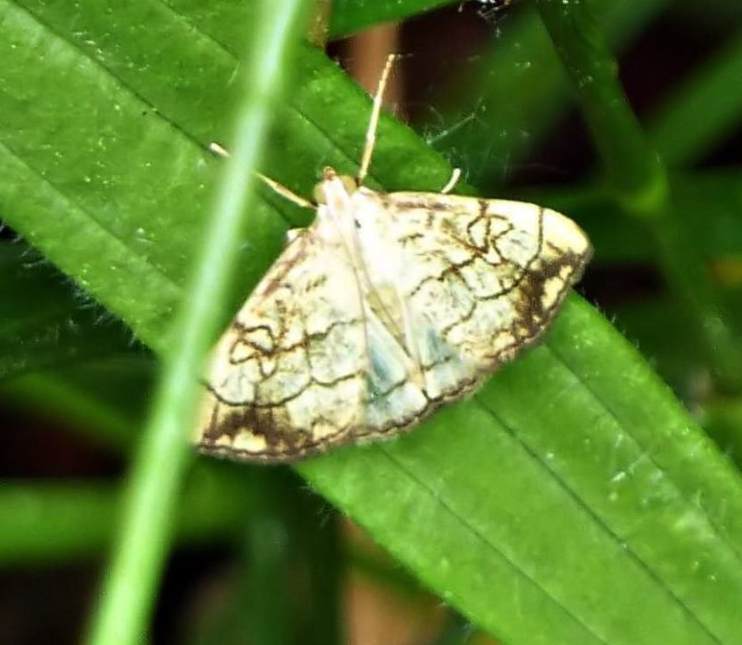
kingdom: Animalia
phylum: Arthropoda
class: Insecta
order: Lepidoptera
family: Crambidae
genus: Evergestis
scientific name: Evergestis pallidata
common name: Chequered pearl
